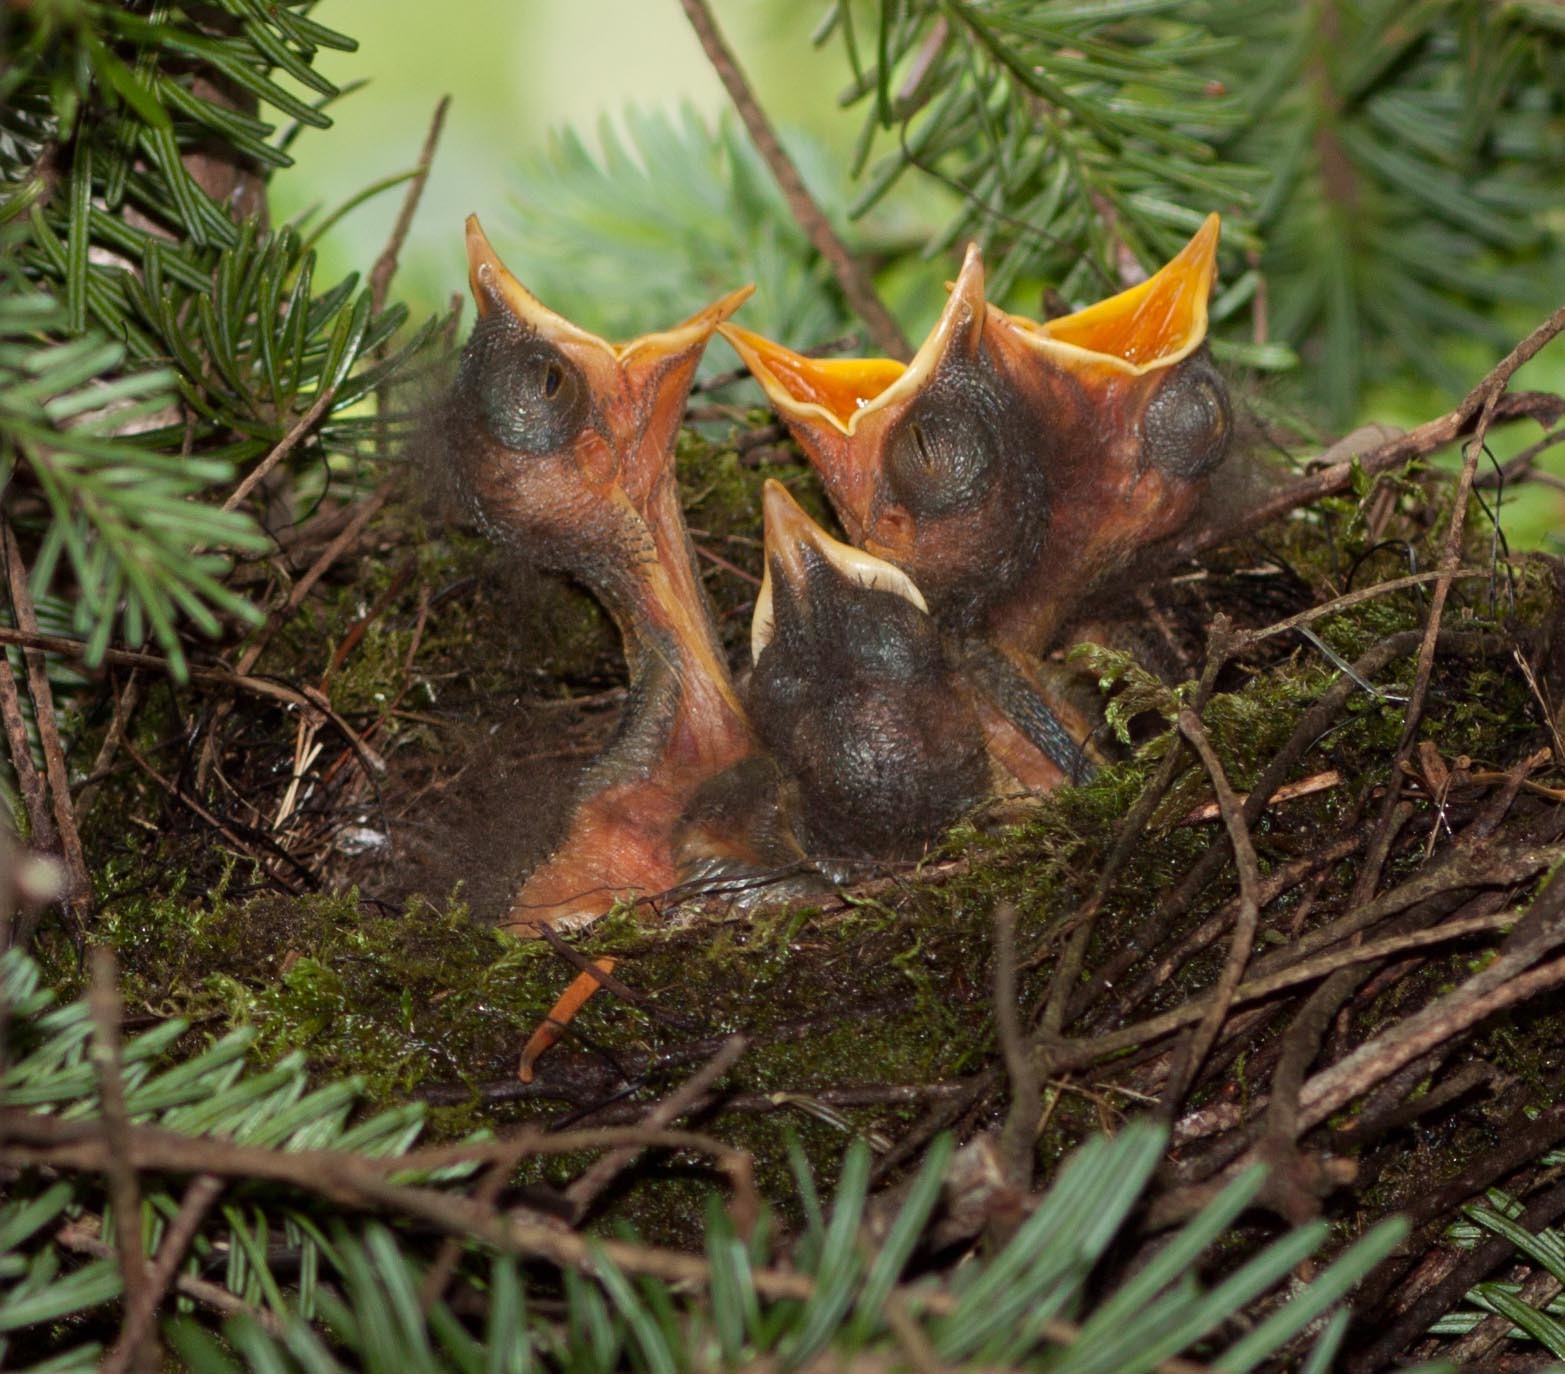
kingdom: Animalia
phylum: Chordata
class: Aves
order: Passeriformes
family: Turdidae
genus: Catharus
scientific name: Catharus bicknelli
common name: Bicknell's thrush
